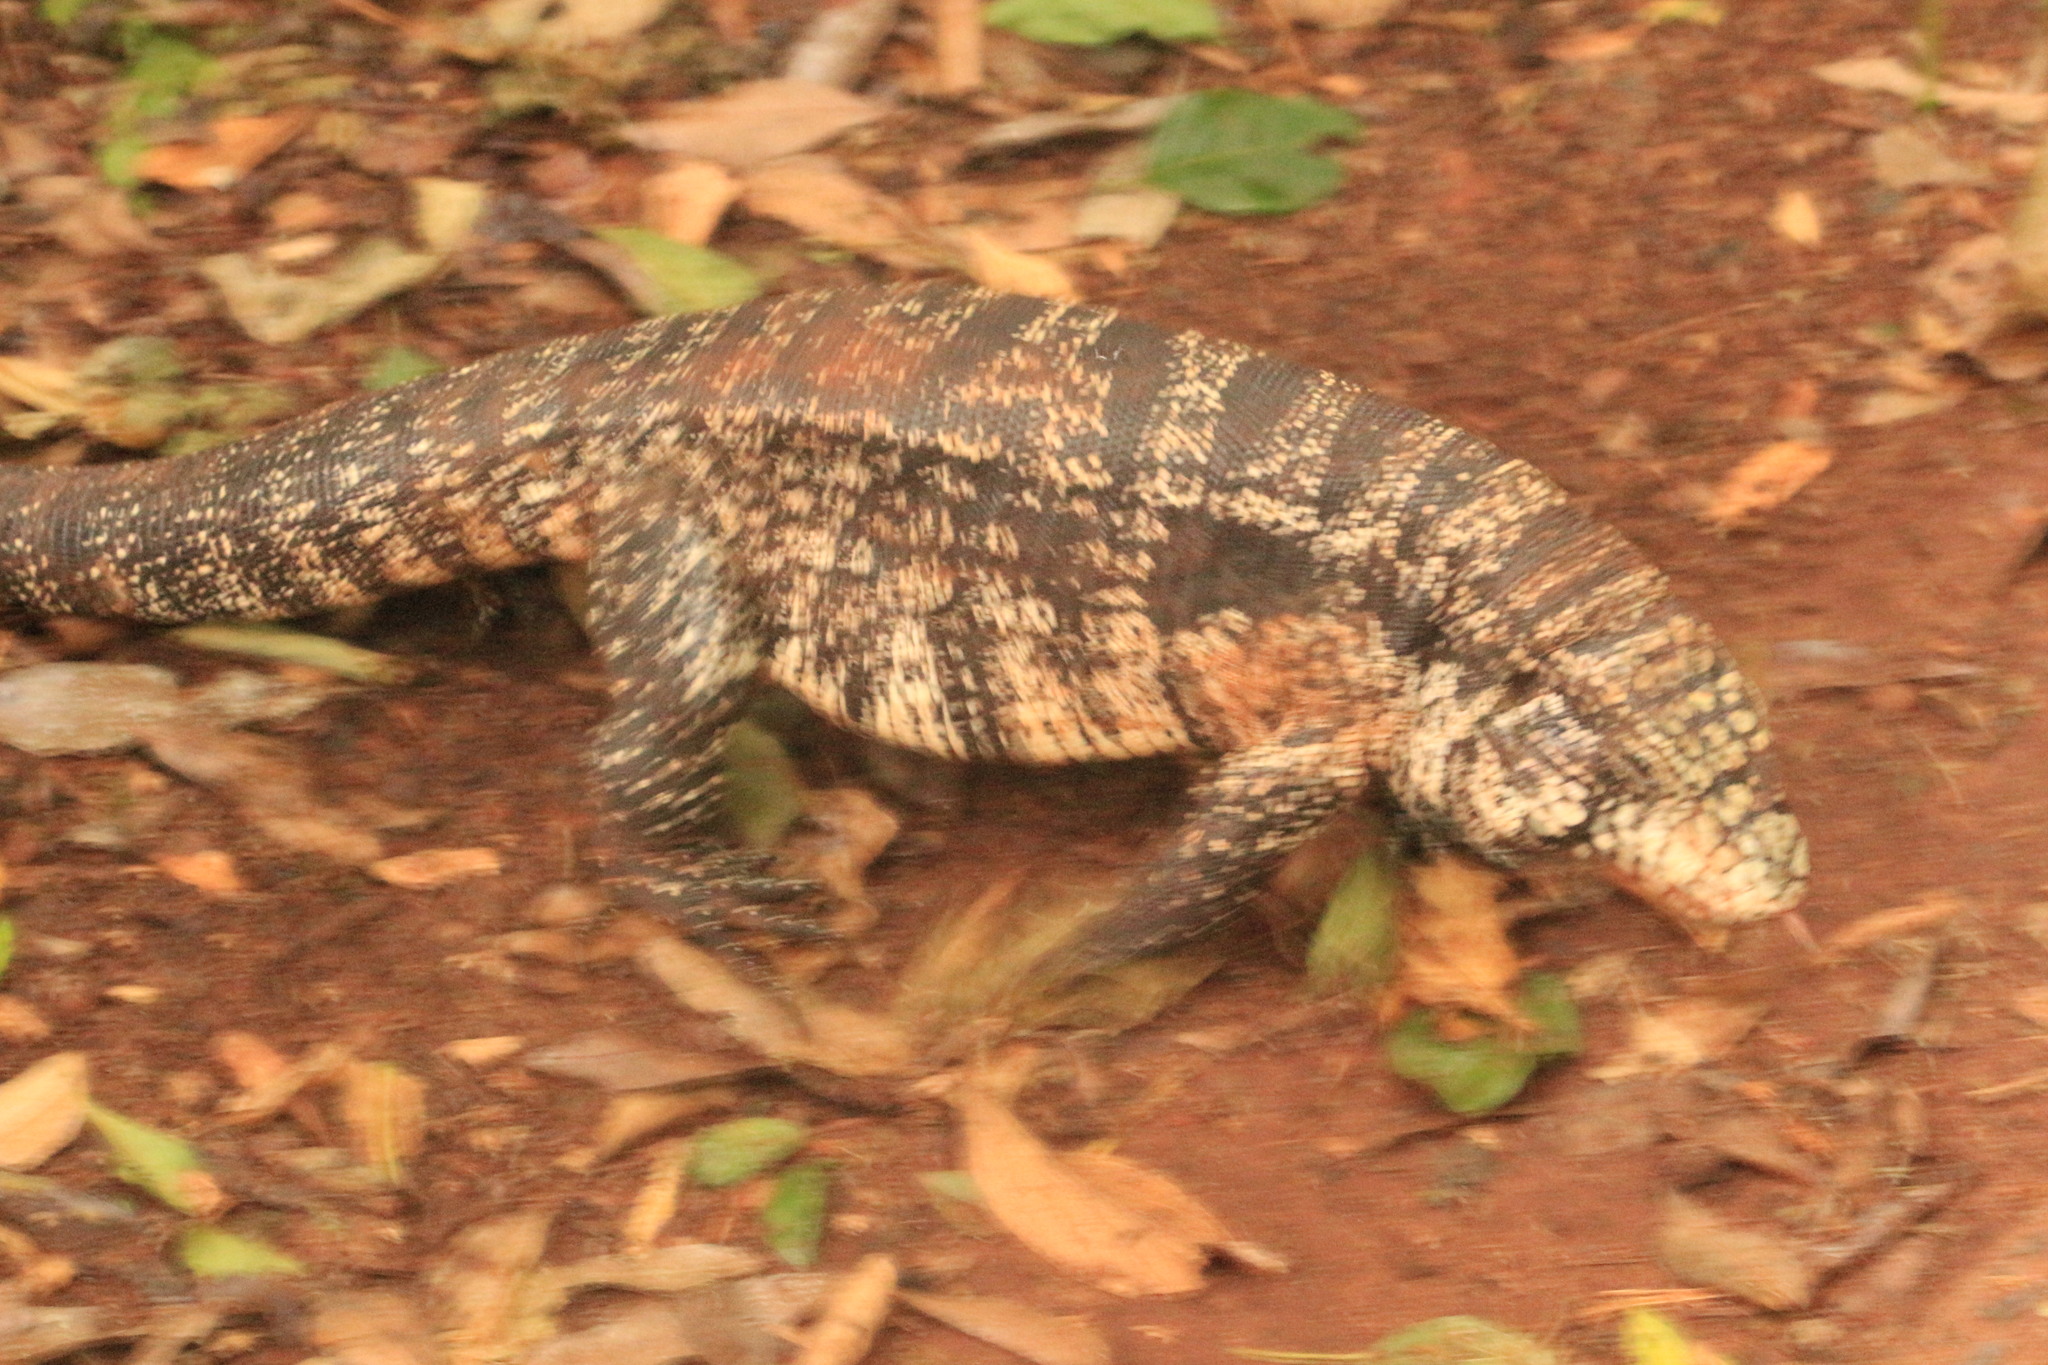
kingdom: Animalia
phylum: Chordata
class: Squamata
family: Teiidae
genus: Salvator
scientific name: Salvator merianae
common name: Argentine black and white tegu
